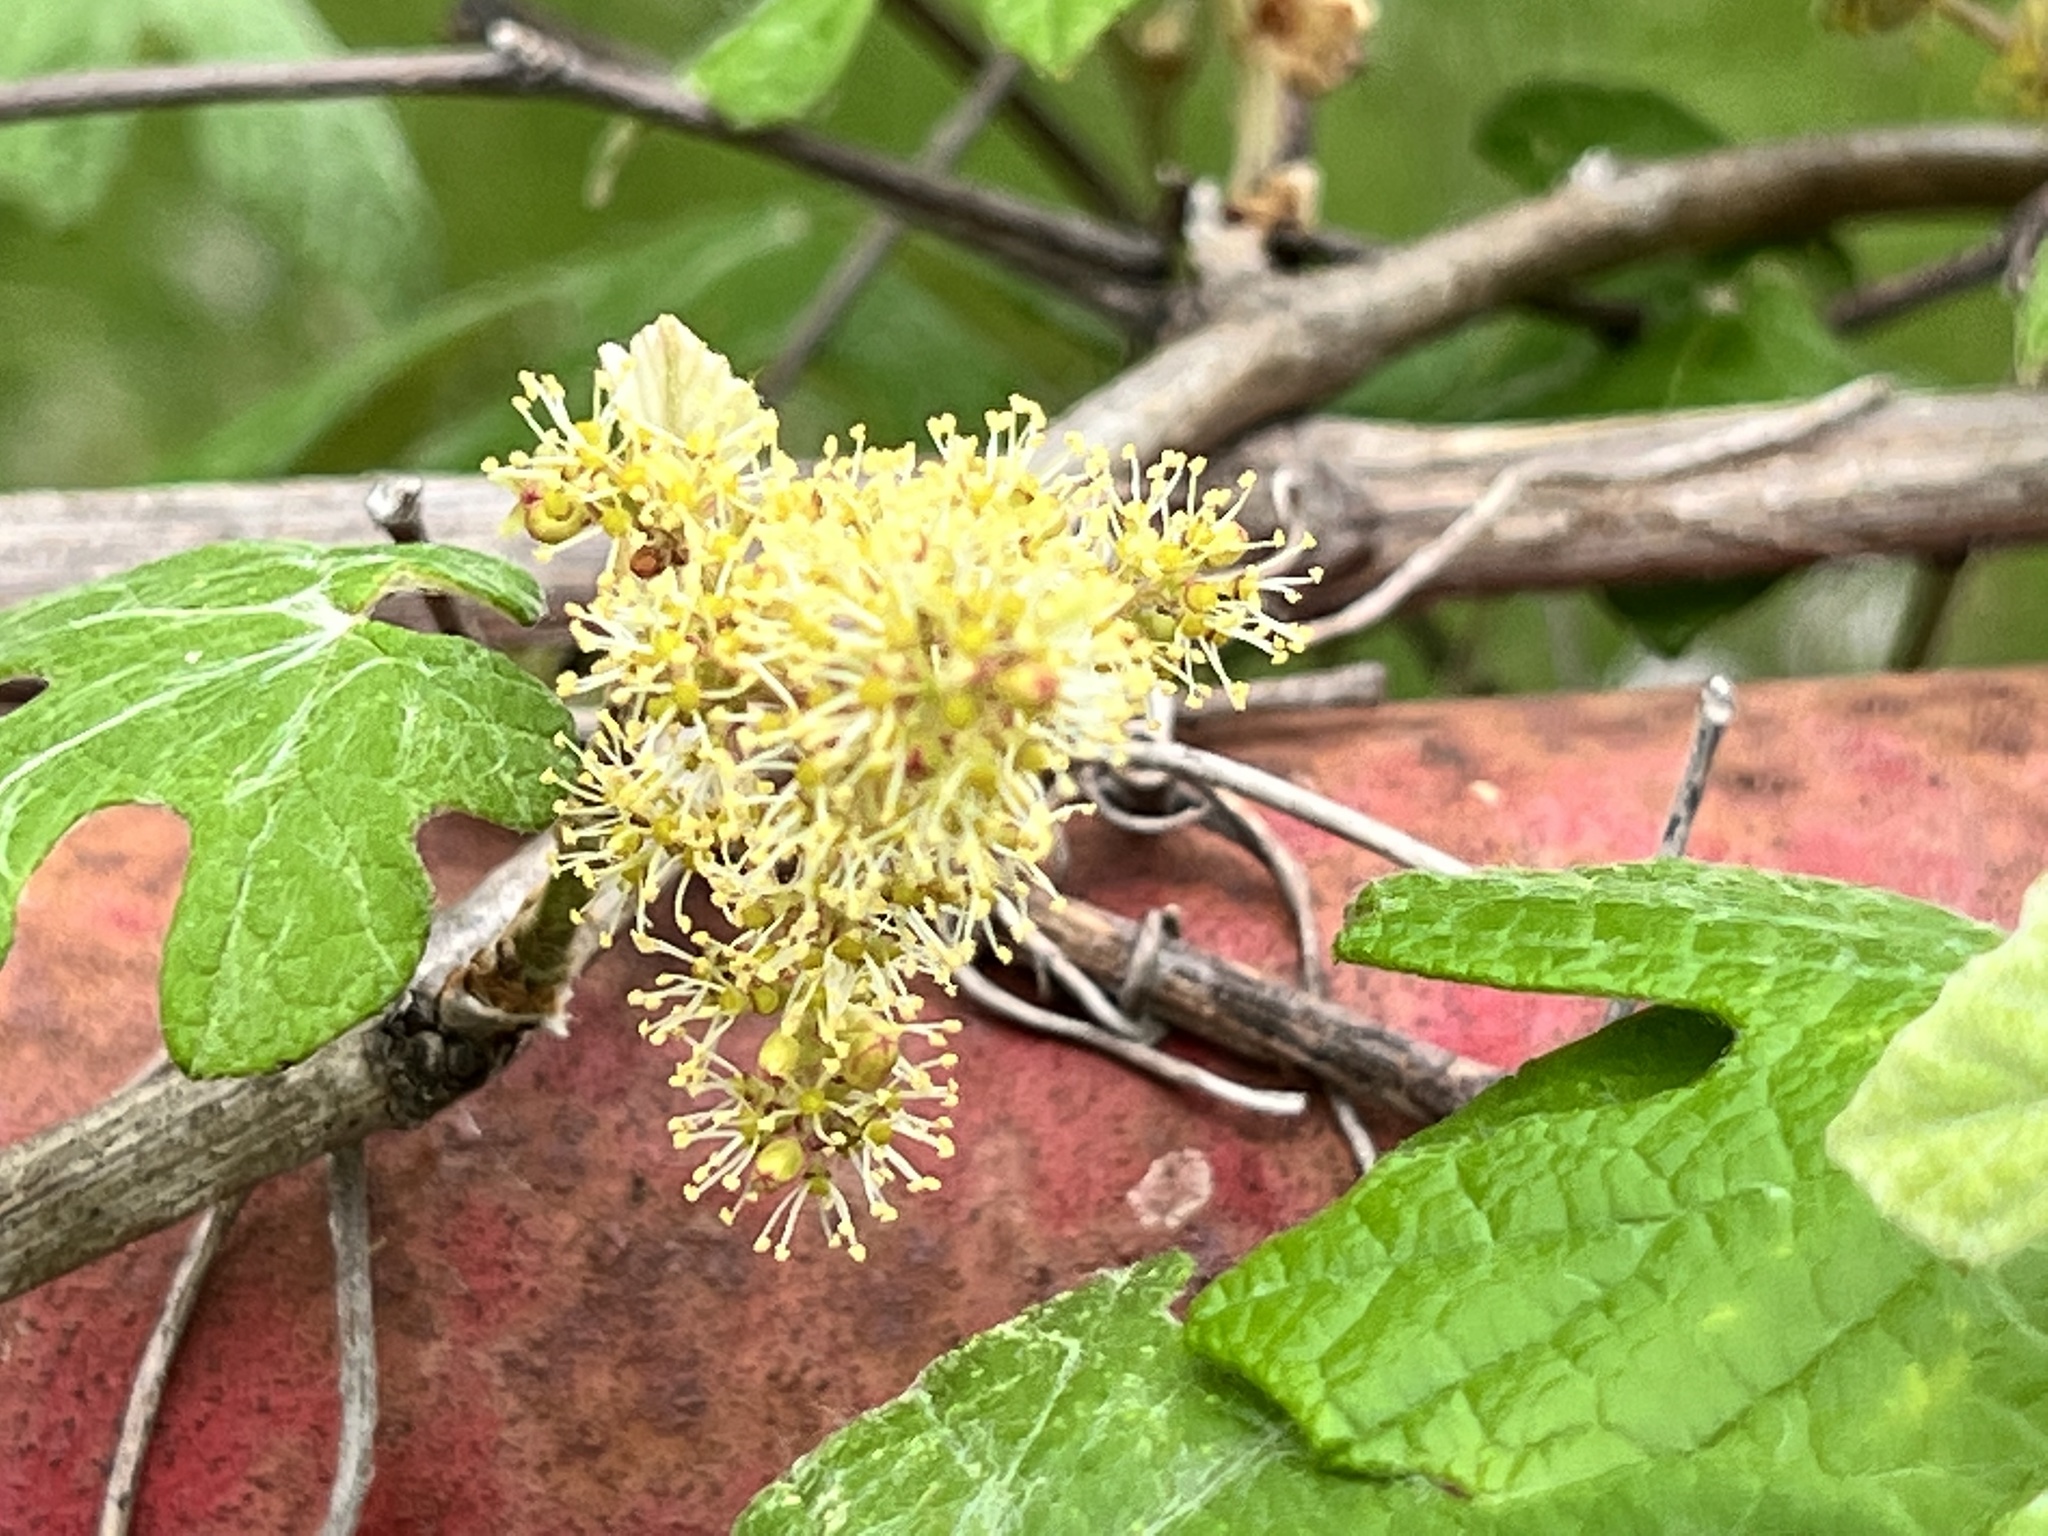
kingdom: Plantae
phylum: Tracheophyta
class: Magnoliopsida
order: Vitales
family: Vitaceae
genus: Vitis
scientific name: Vitis mustangensis
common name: Mustang grape
